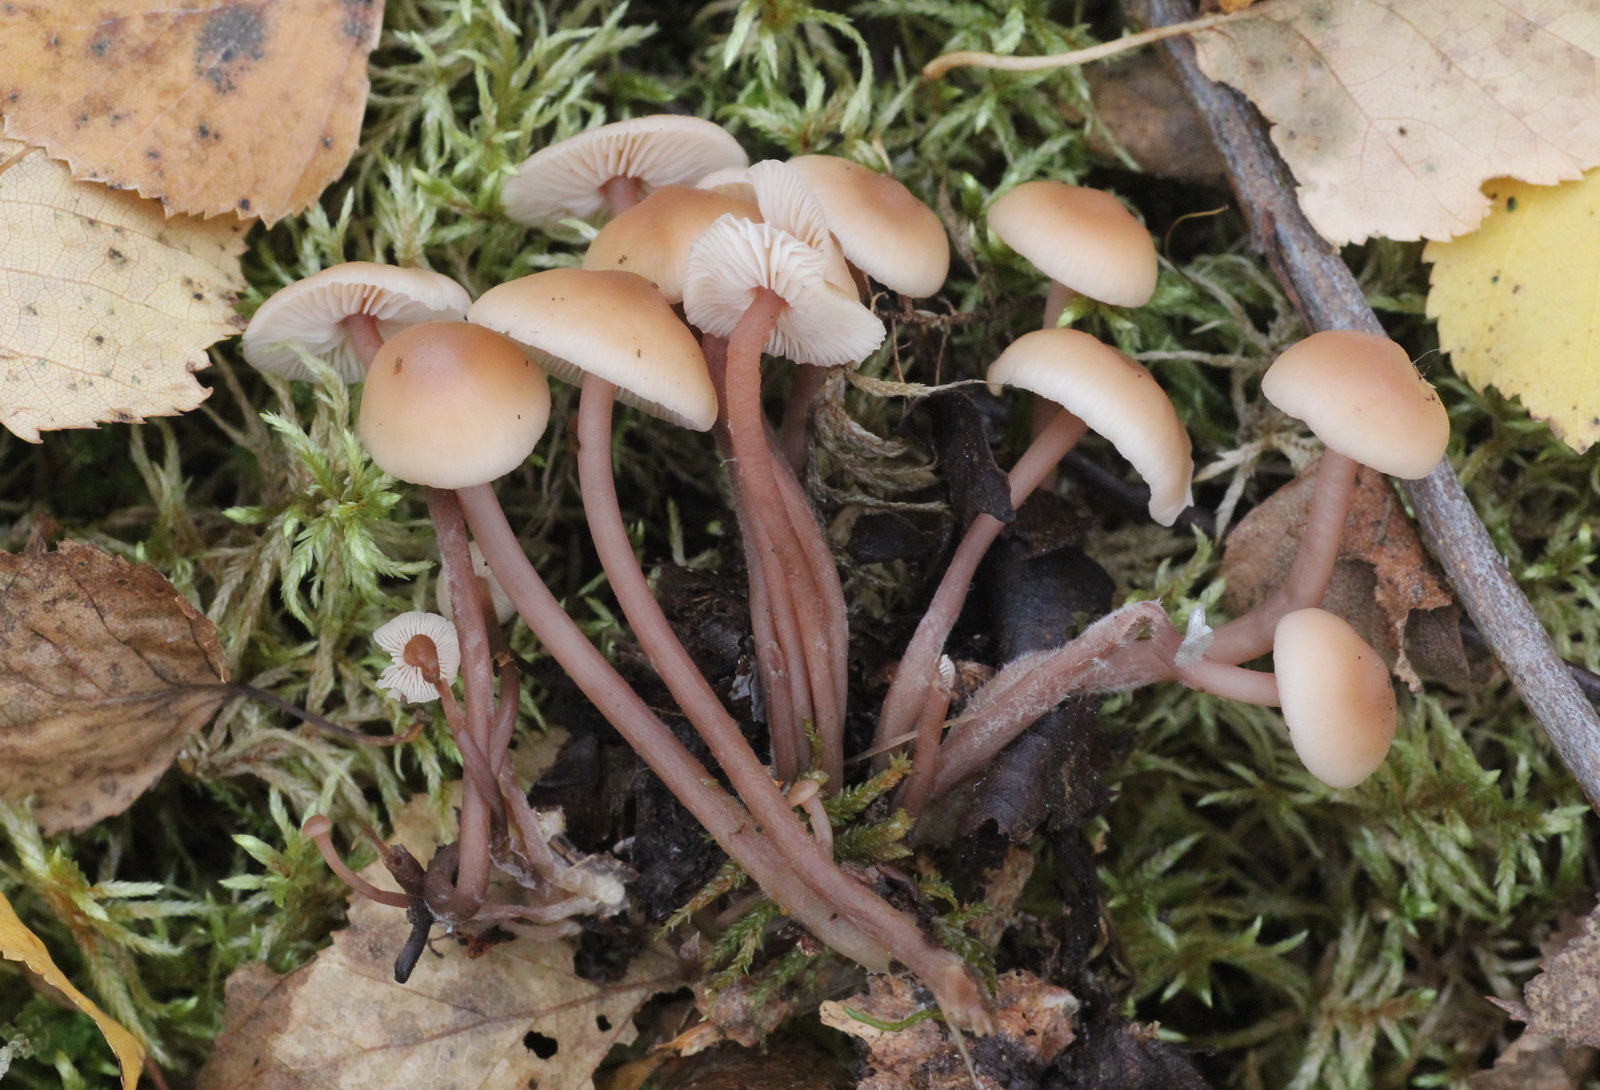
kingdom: Fungi
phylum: Basidiomycota
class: Agaricomycetes
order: Agaricales
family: Omphalotaceae
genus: Connopus
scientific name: Connopus acervatus
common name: Cluster cap
